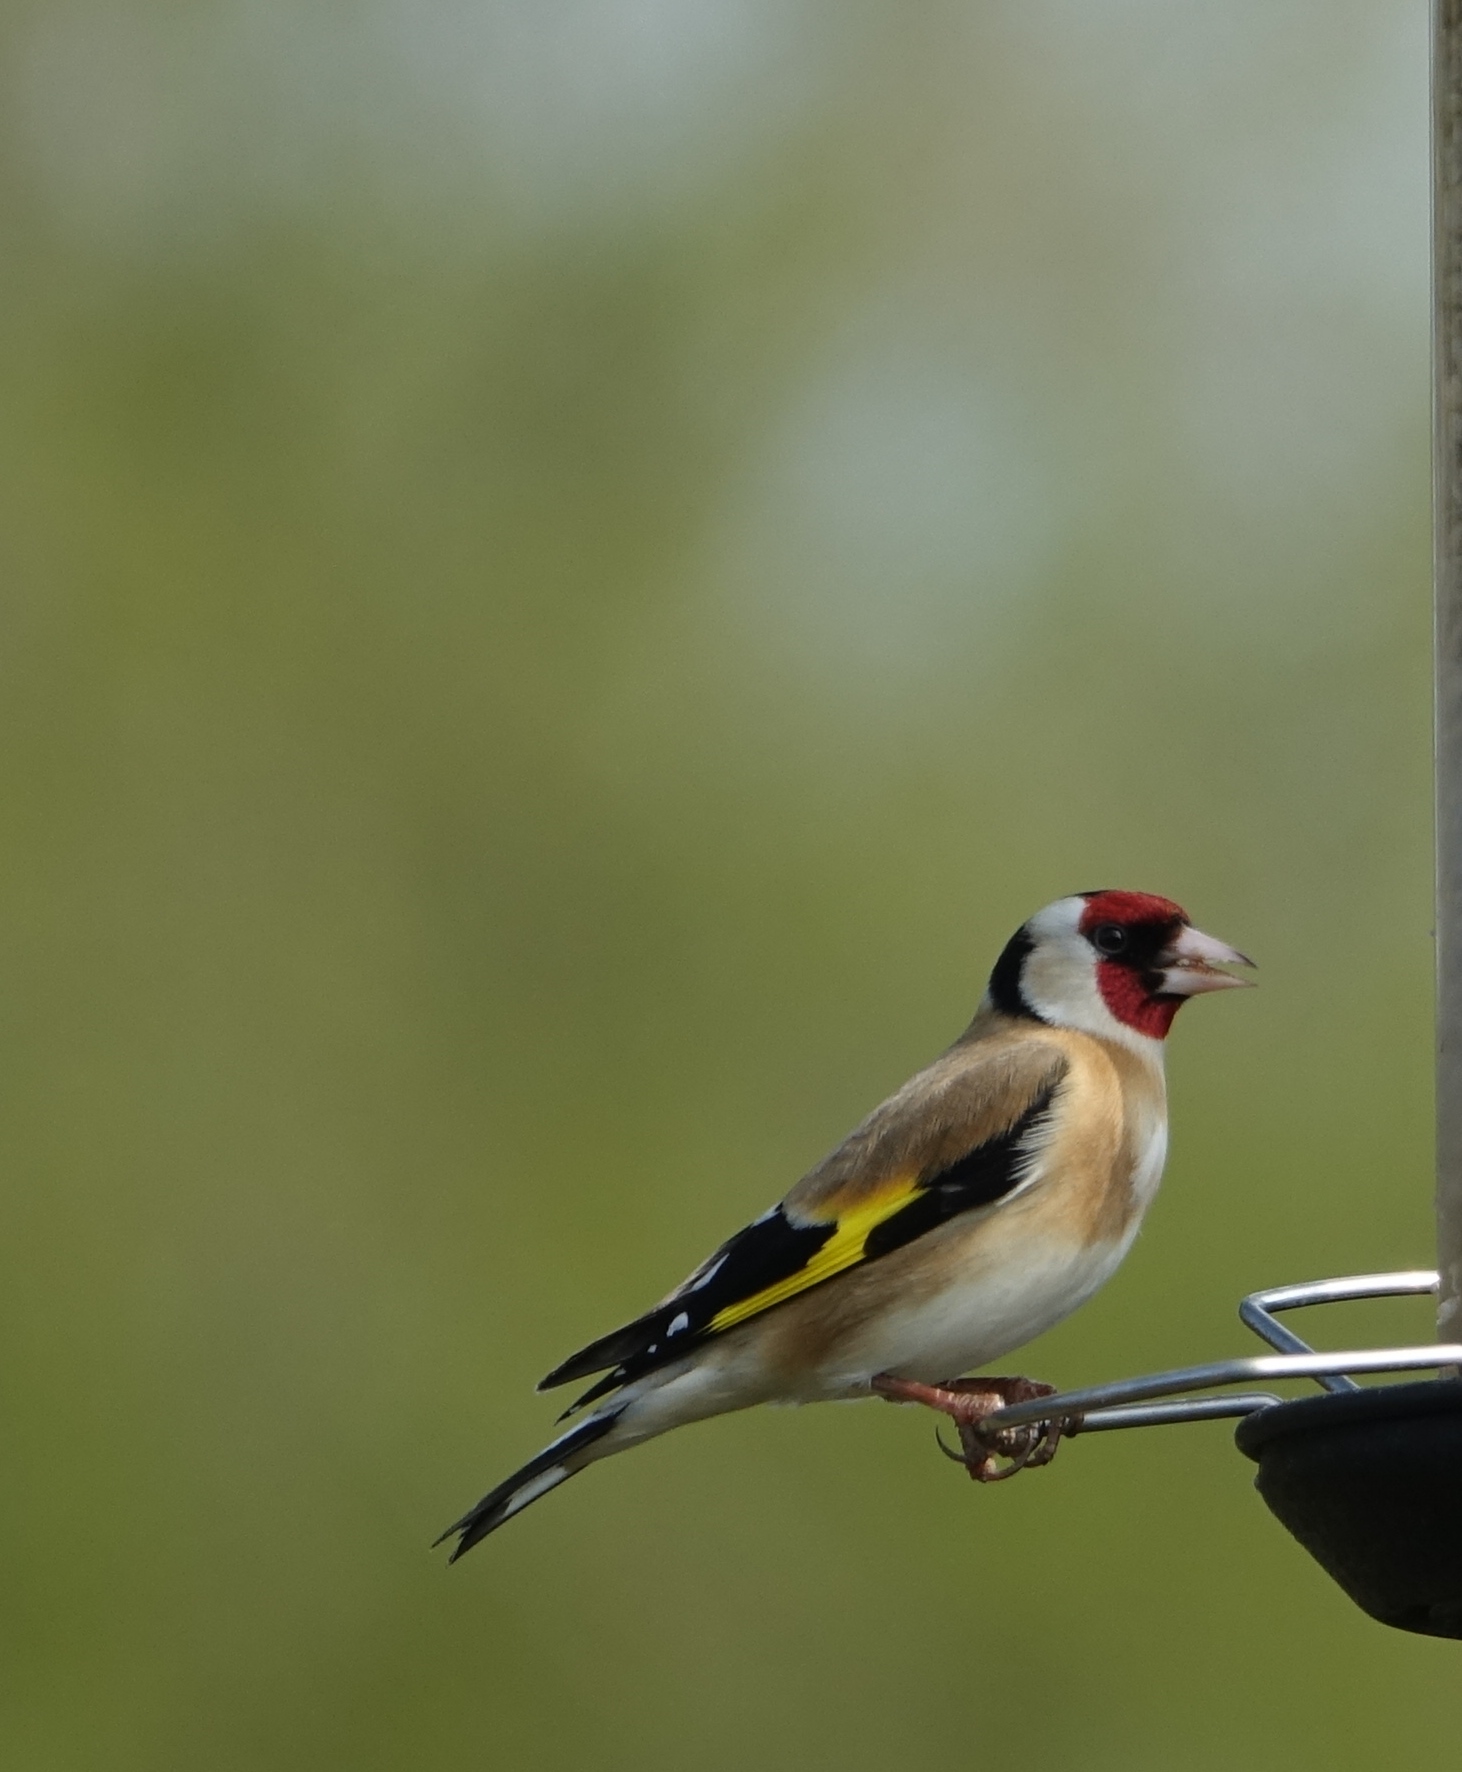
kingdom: Animalia
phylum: Chordata
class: Aves
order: Passeriformes
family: Fringillidae
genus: Carduelis
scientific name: Carduelis carduelis
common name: European goldfinch
